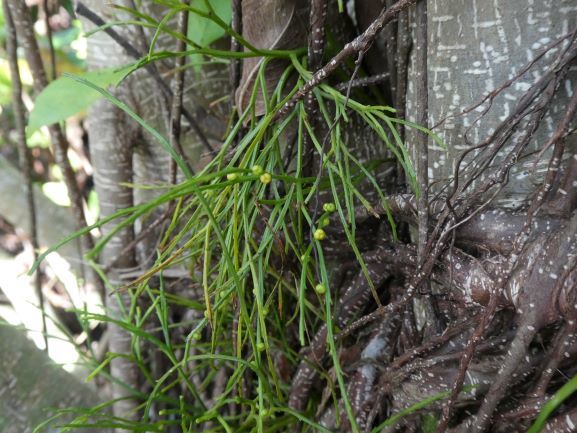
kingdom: Plantae
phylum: Tracheophyta
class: Polypodiopsida
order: Psilotales
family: Psilotaceae
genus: Psilotum
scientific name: Psilotum nudum
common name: Skeleton fork fern
